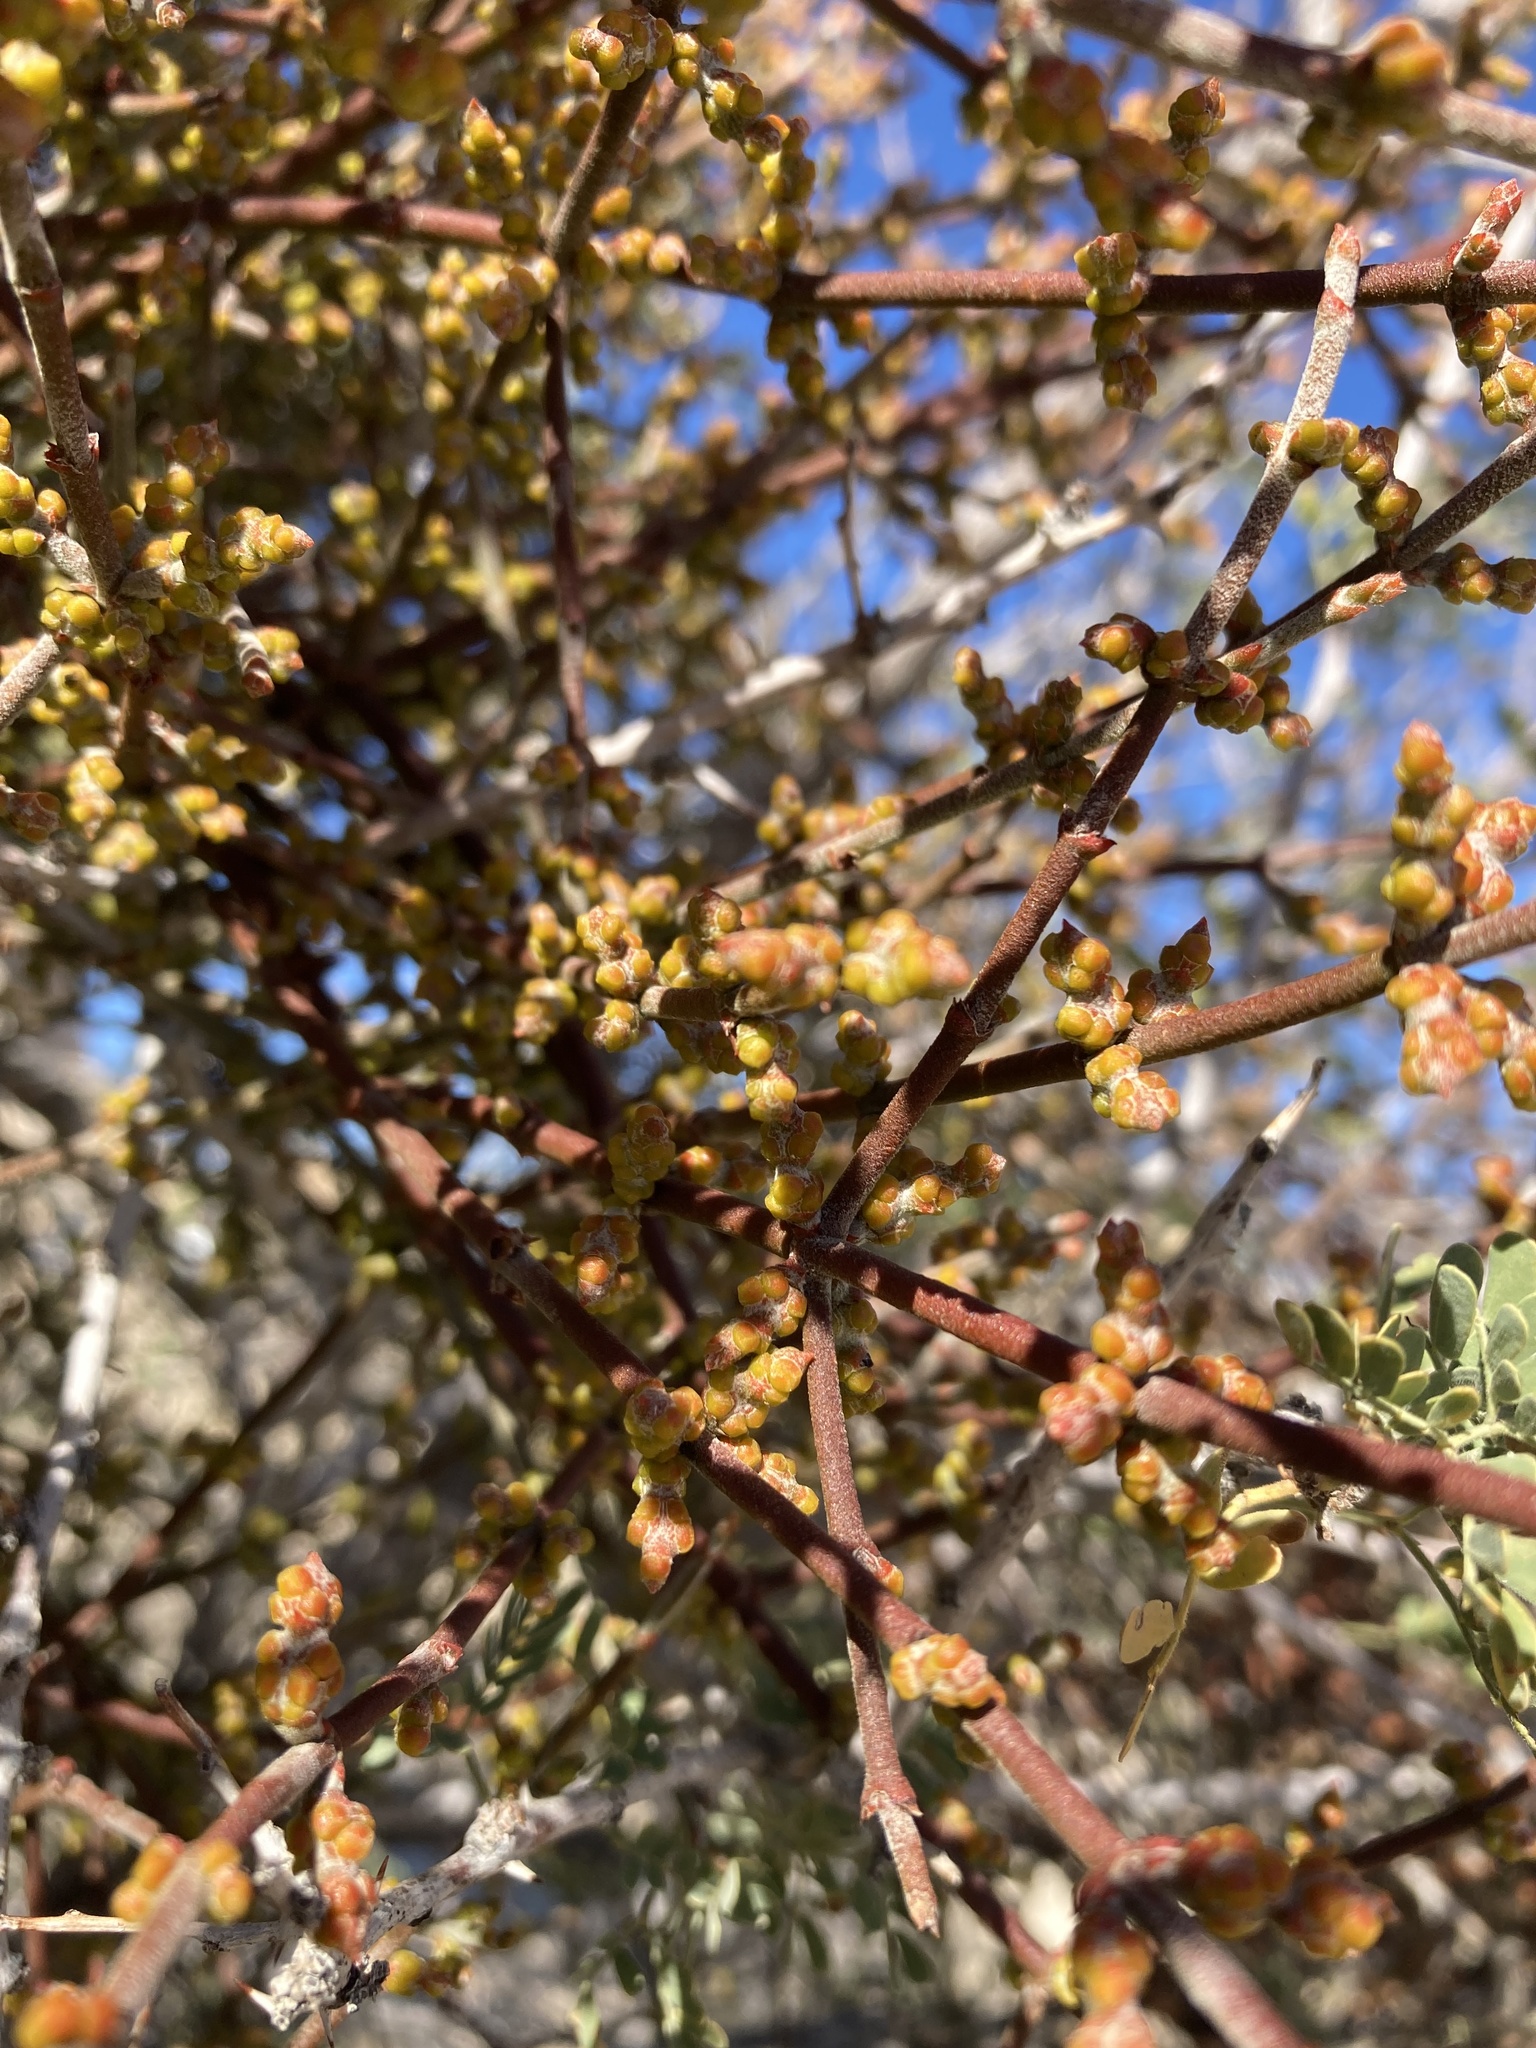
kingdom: Plantae
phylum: Tracheophyta
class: Magnoliopsida
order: Santalales
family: Viscaceae
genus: Phoradendron
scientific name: Phoradendron californicum
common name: Acacia mistletoe
